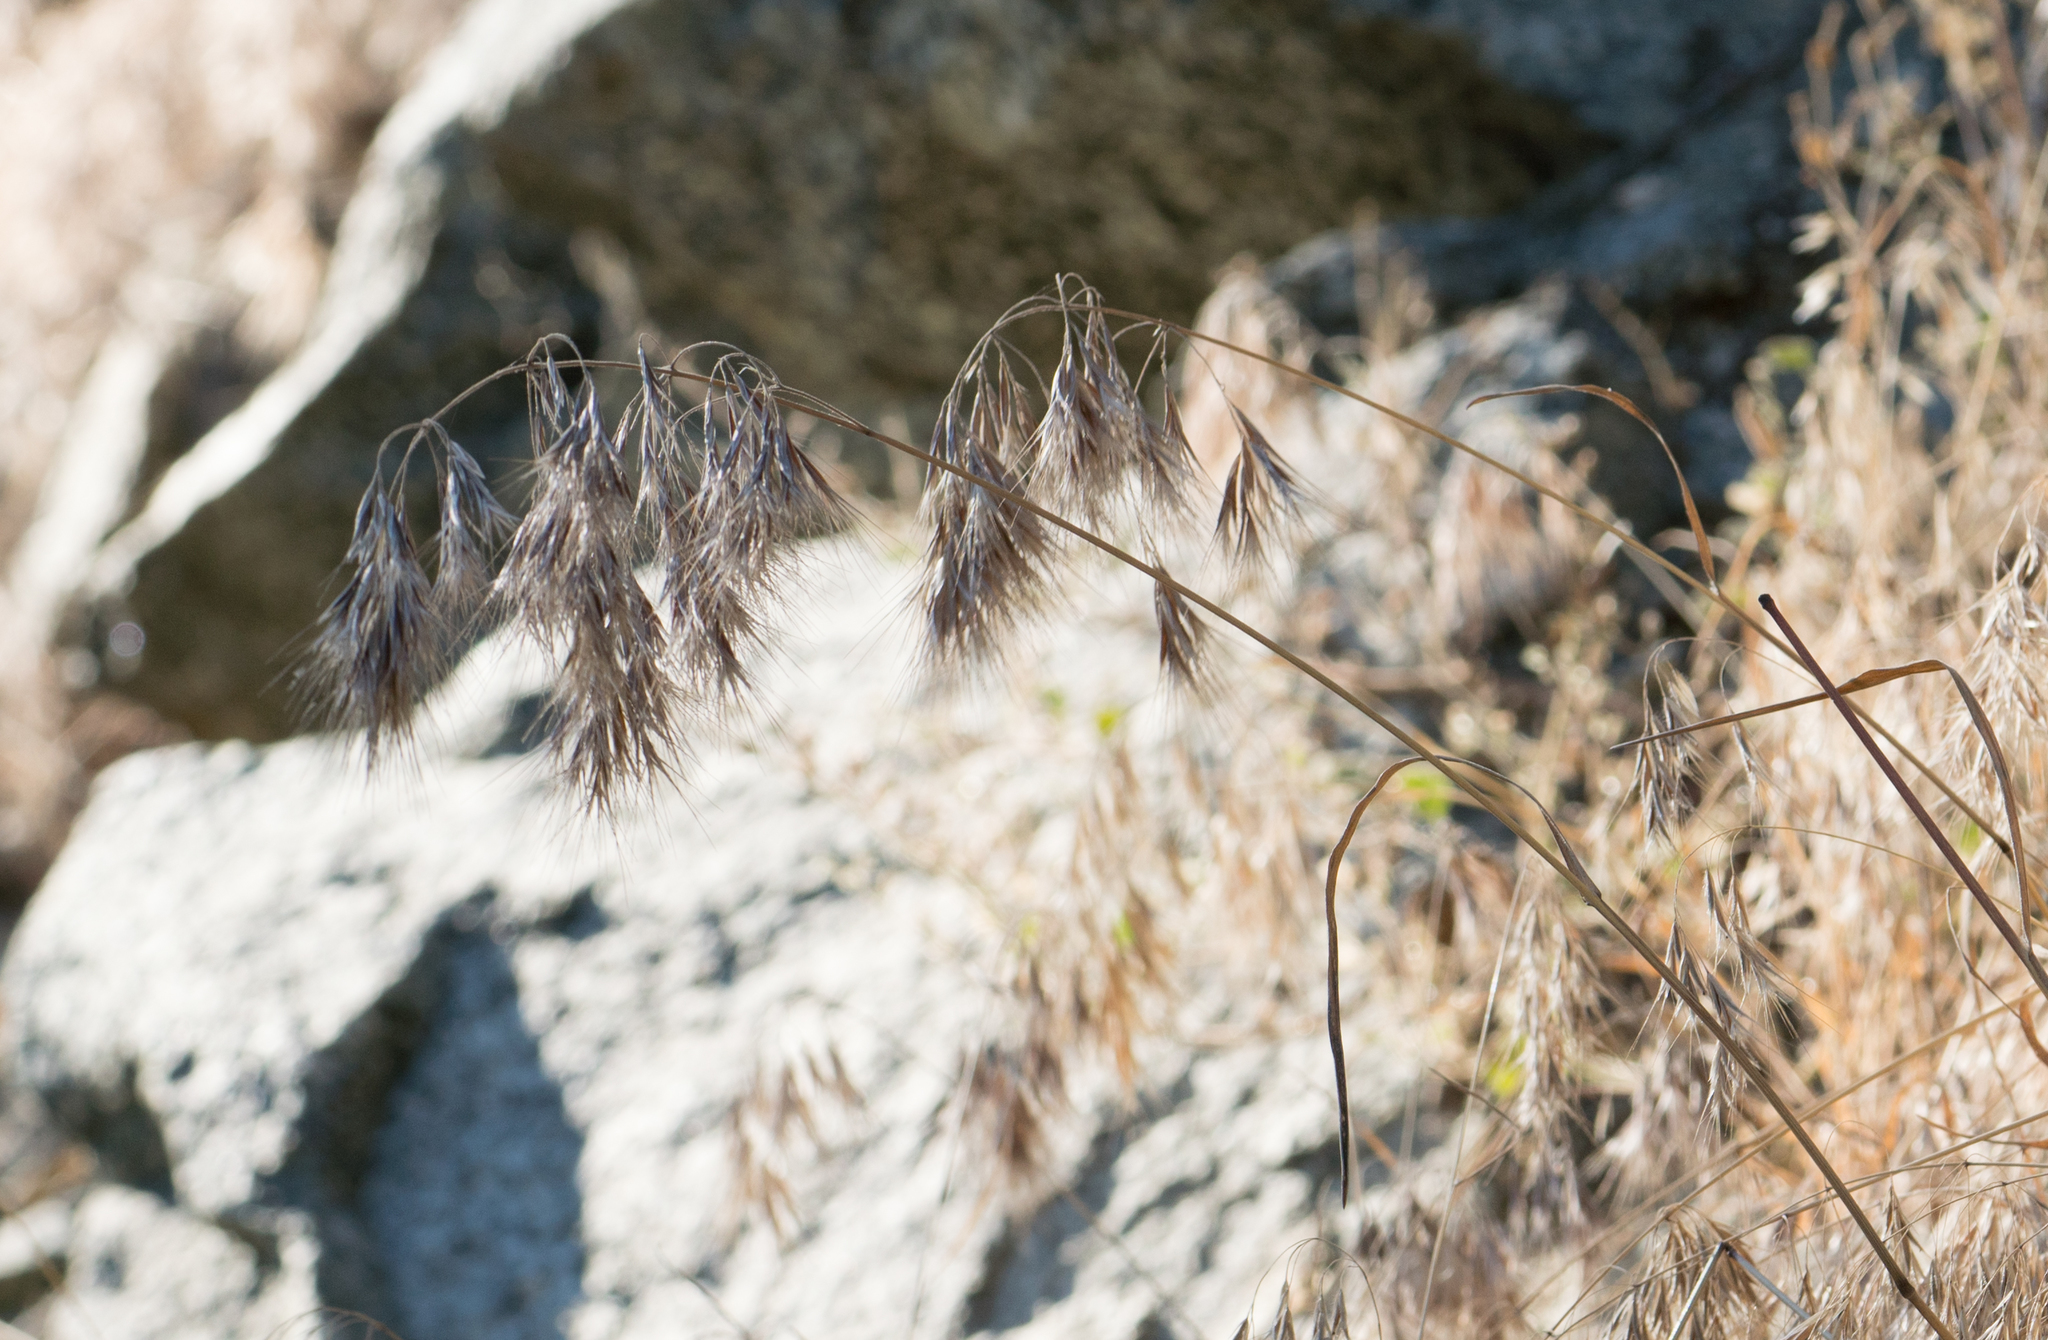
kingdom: Plantae
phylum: Tracheophyta
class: Liliopsida
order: Poales
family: Poaceae
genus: Bromus
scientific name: Bromus tectorum
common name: Cheatgrass
